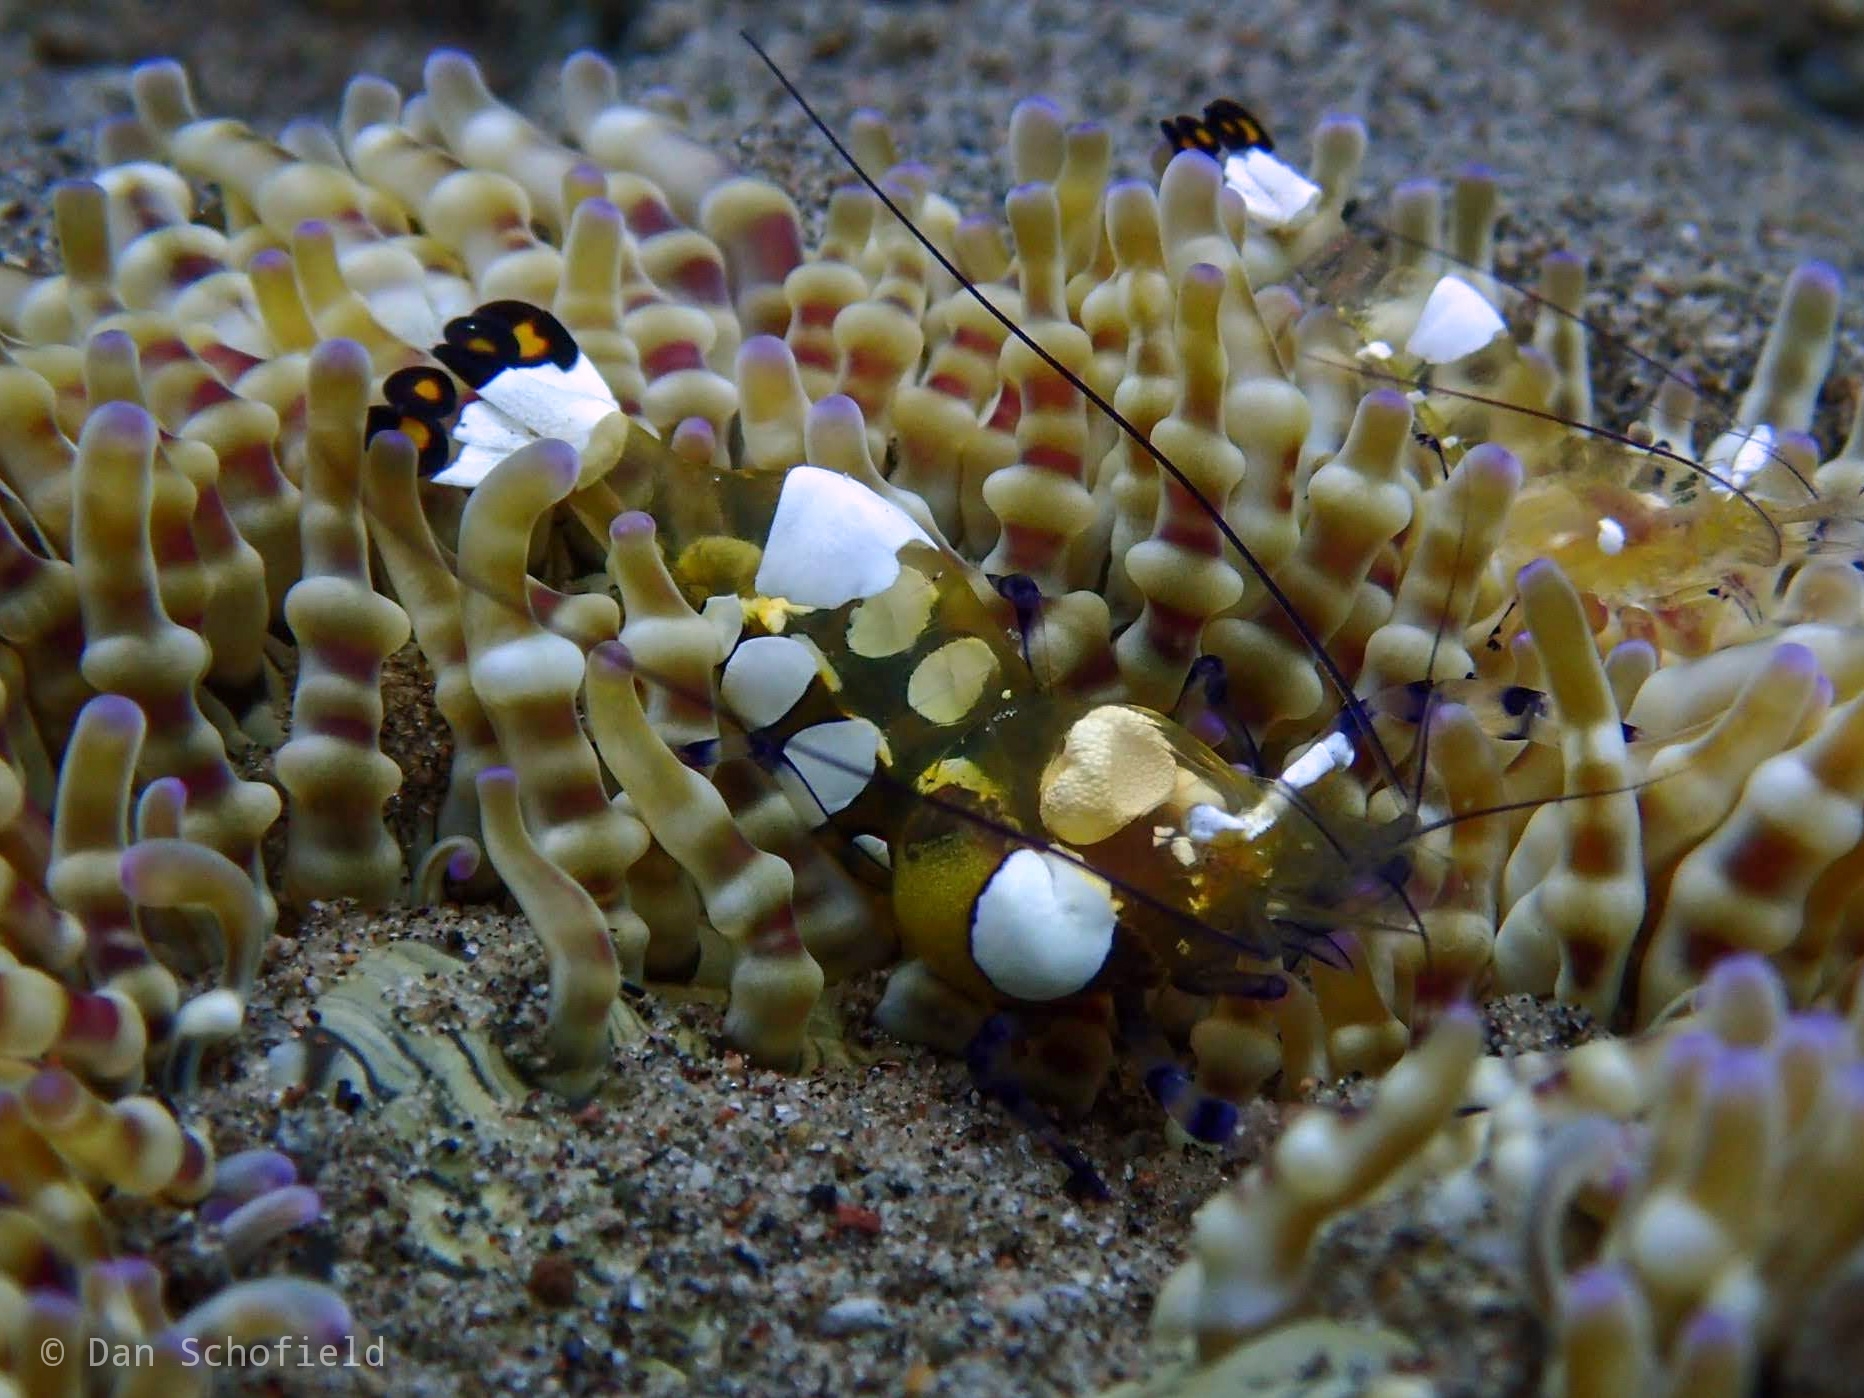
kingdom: Animalia
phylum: Arthropoda
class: Malacostraca
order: Decapoda
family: Palaemonidae
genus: Ancylocaris
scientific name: Ancylocaris brevicarpalis
